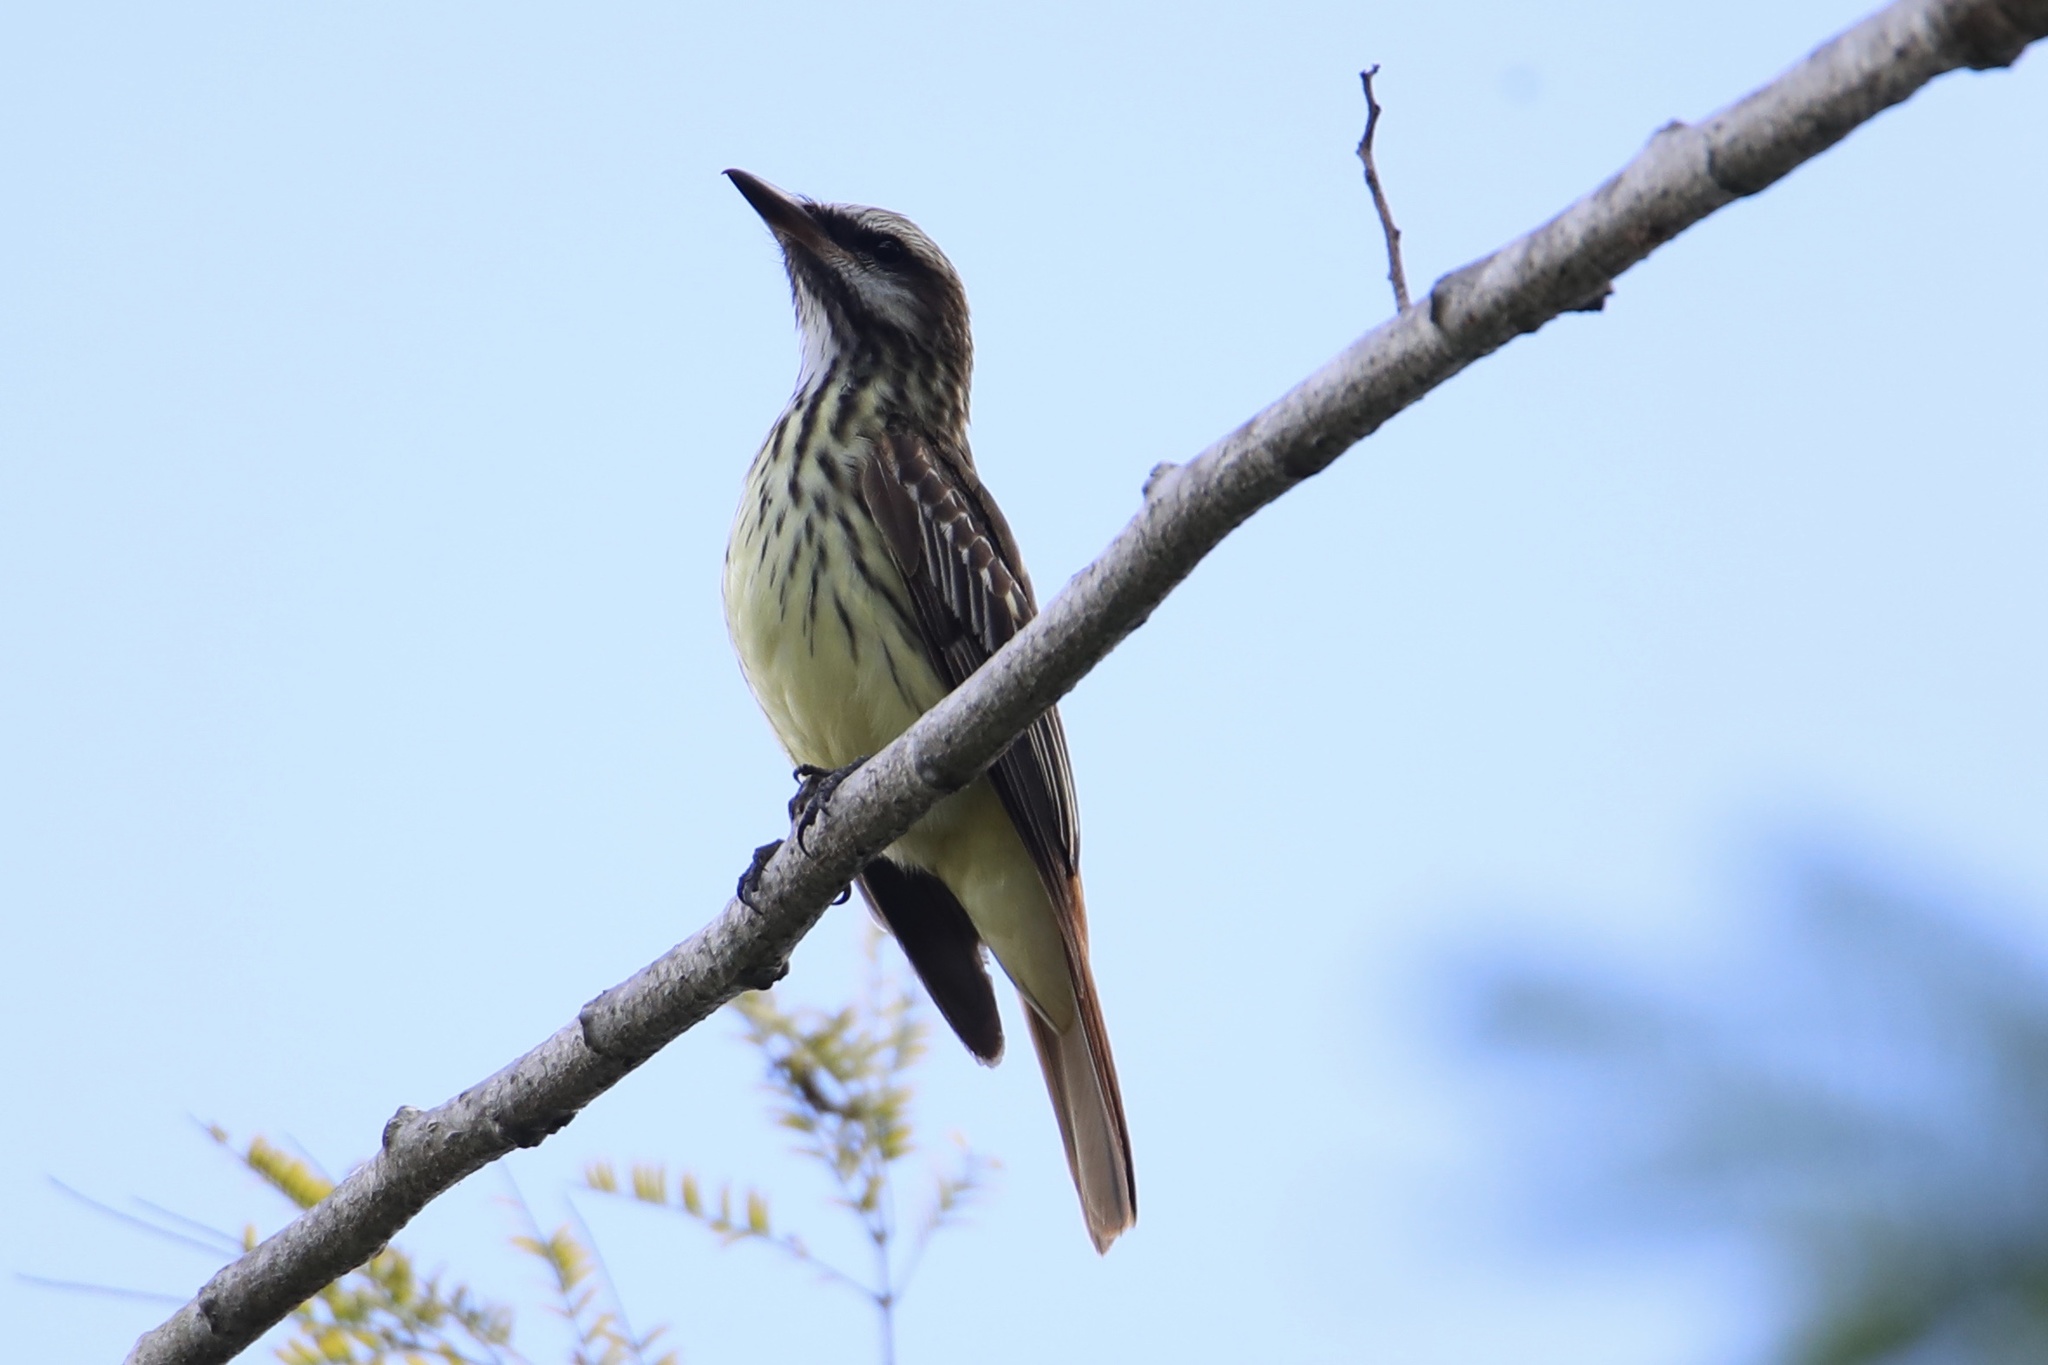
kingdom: Animalia
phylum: Chordata
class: Aves
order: Passeriformes
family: Tyrannidae
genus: Myiodynastes
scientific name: Myiodynastes luteiventris
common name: Sulphur-bellied flycatcher
